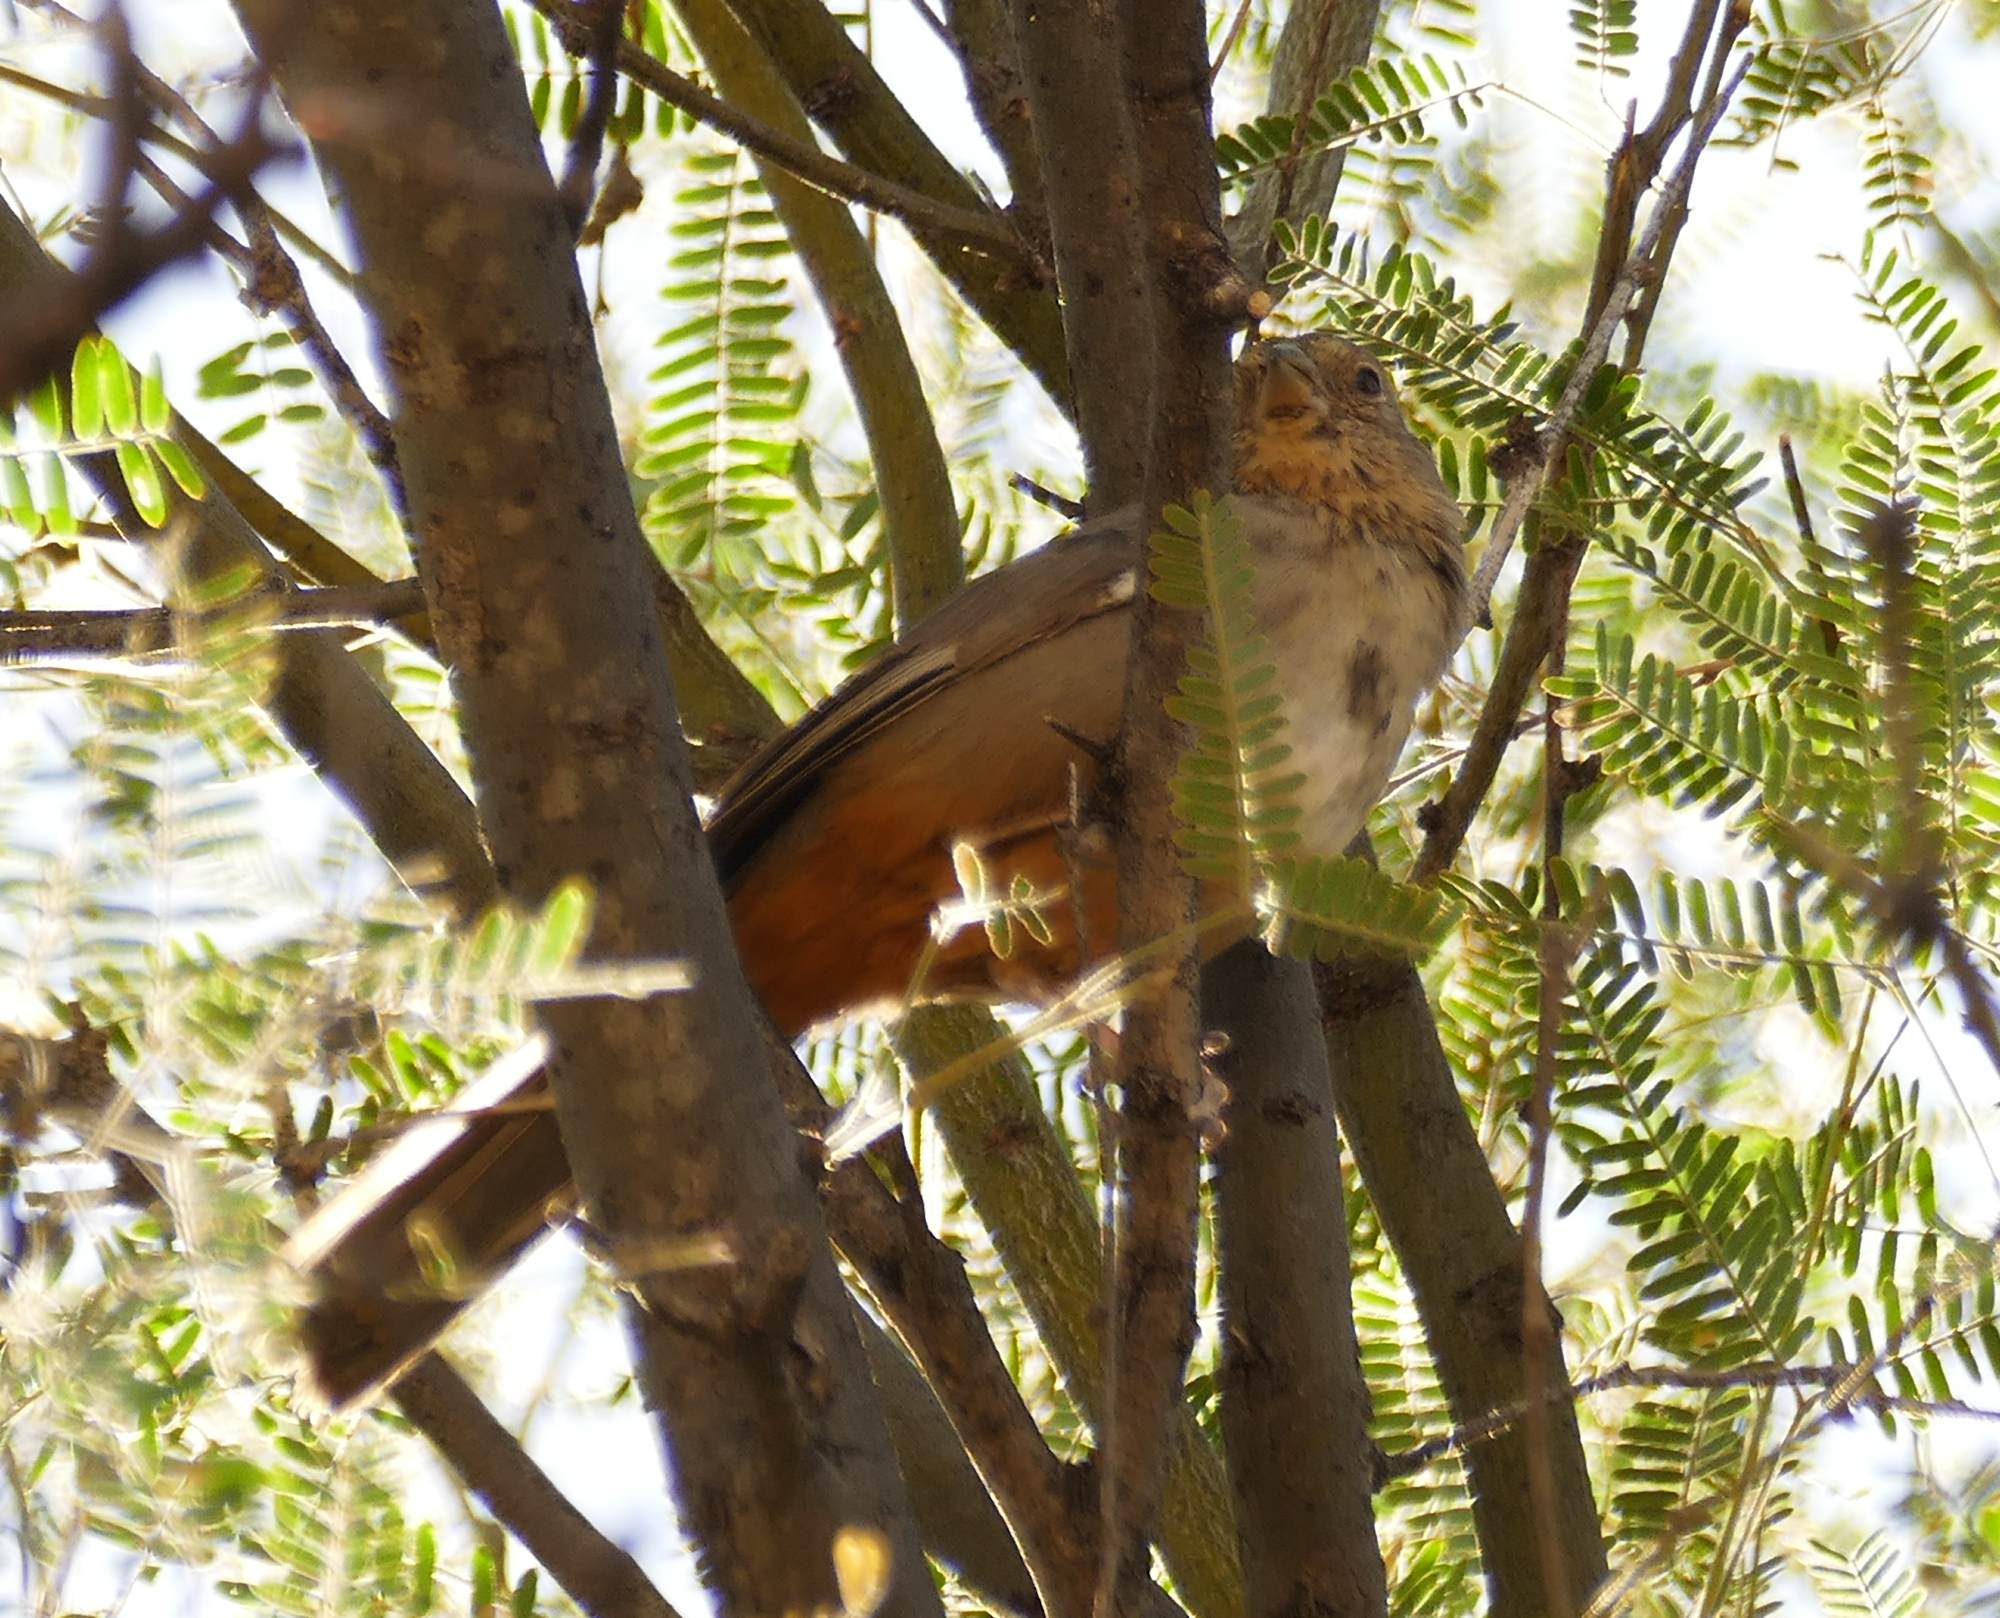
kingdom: Animalia
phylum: Chordata
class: Aves
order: Passeriformes
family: Passerellidae
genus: Melozone
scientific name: Melozone fusca
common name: Canyon towhee
